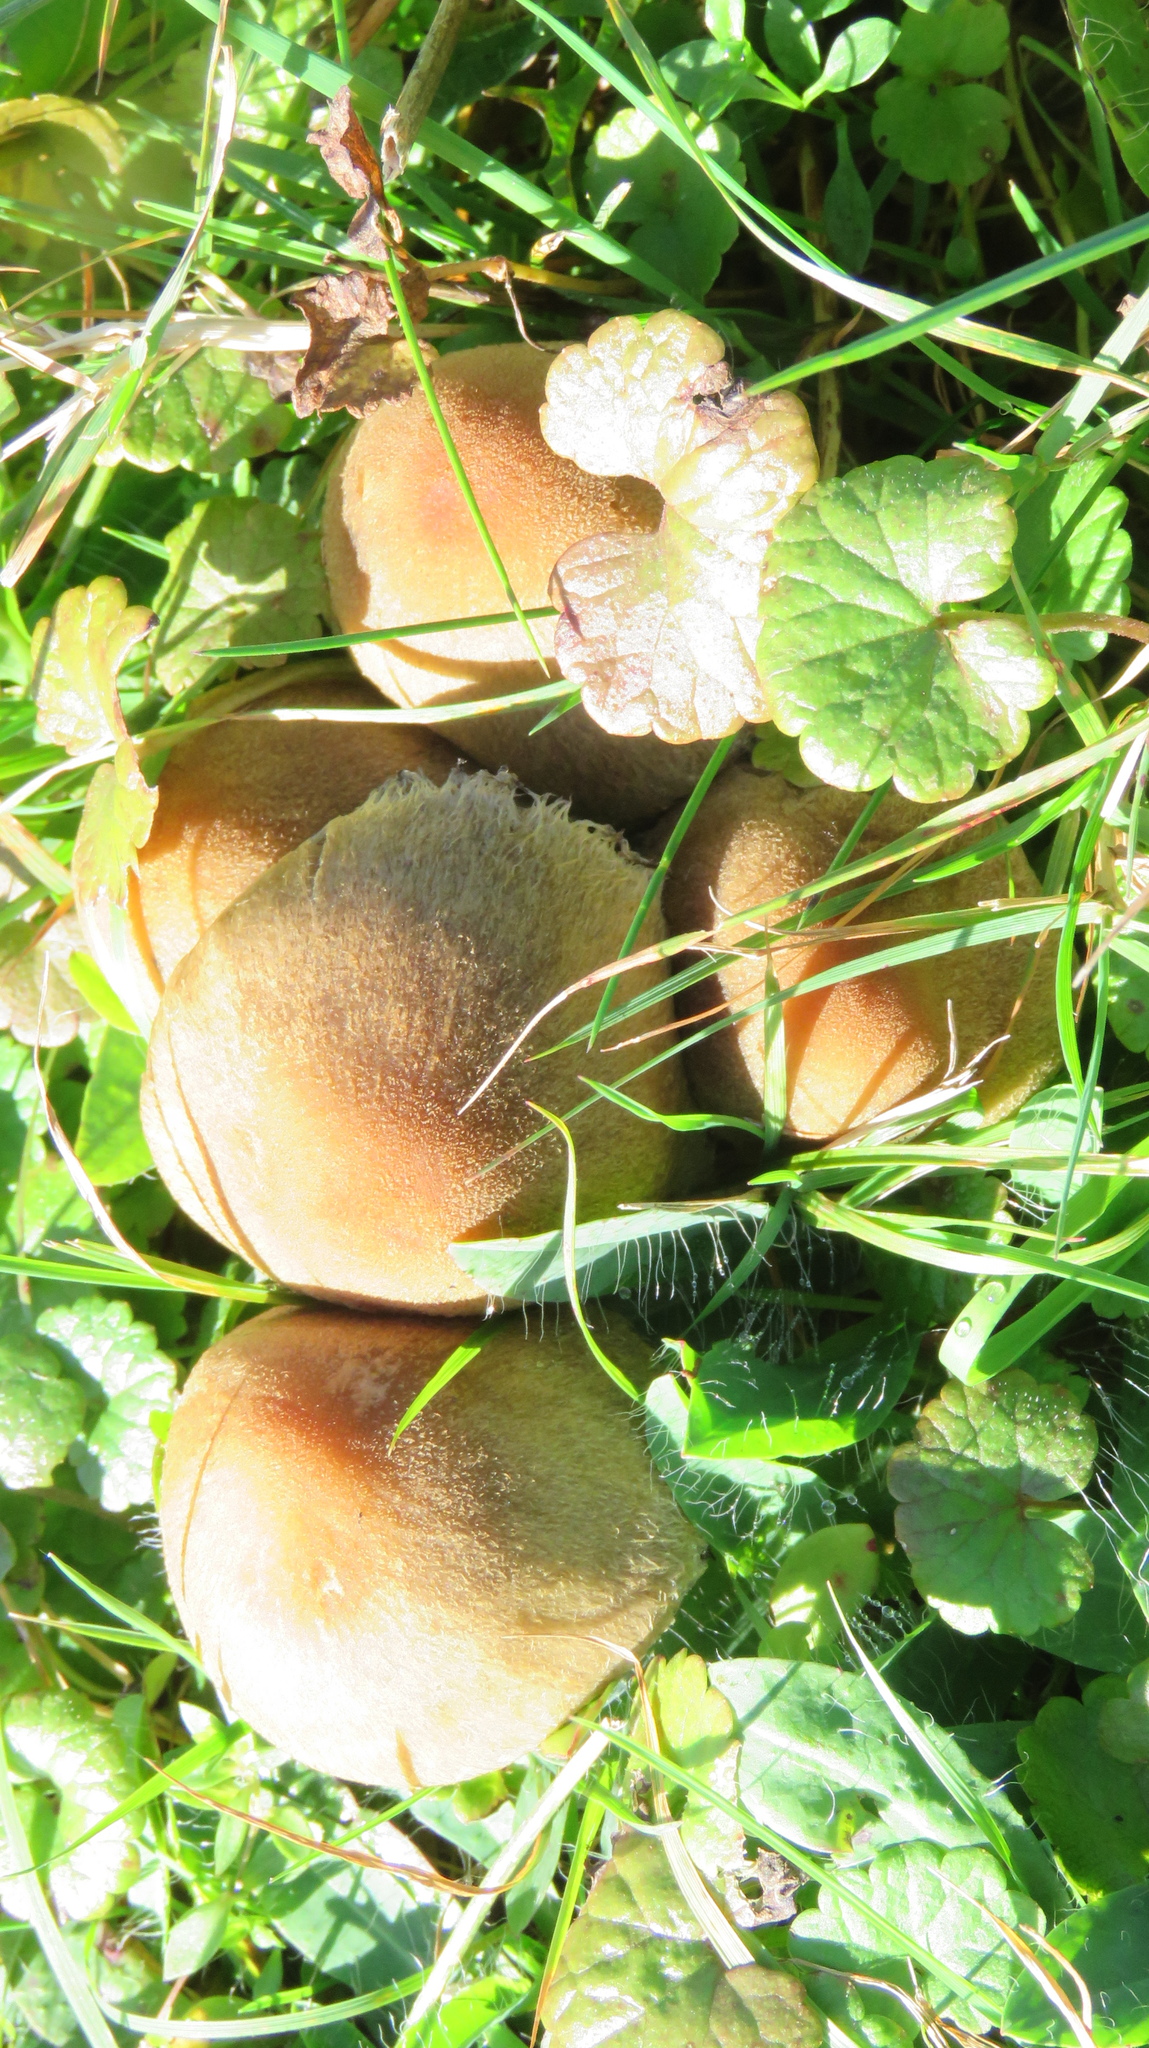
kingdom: Fungi
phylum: Basidiomycota
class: Agaricomycetes
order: Agaricales
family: Psathyrellaceae
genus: Lacrymaria
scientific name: Lacrymaria lacrymabunda
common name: Weeping widow
